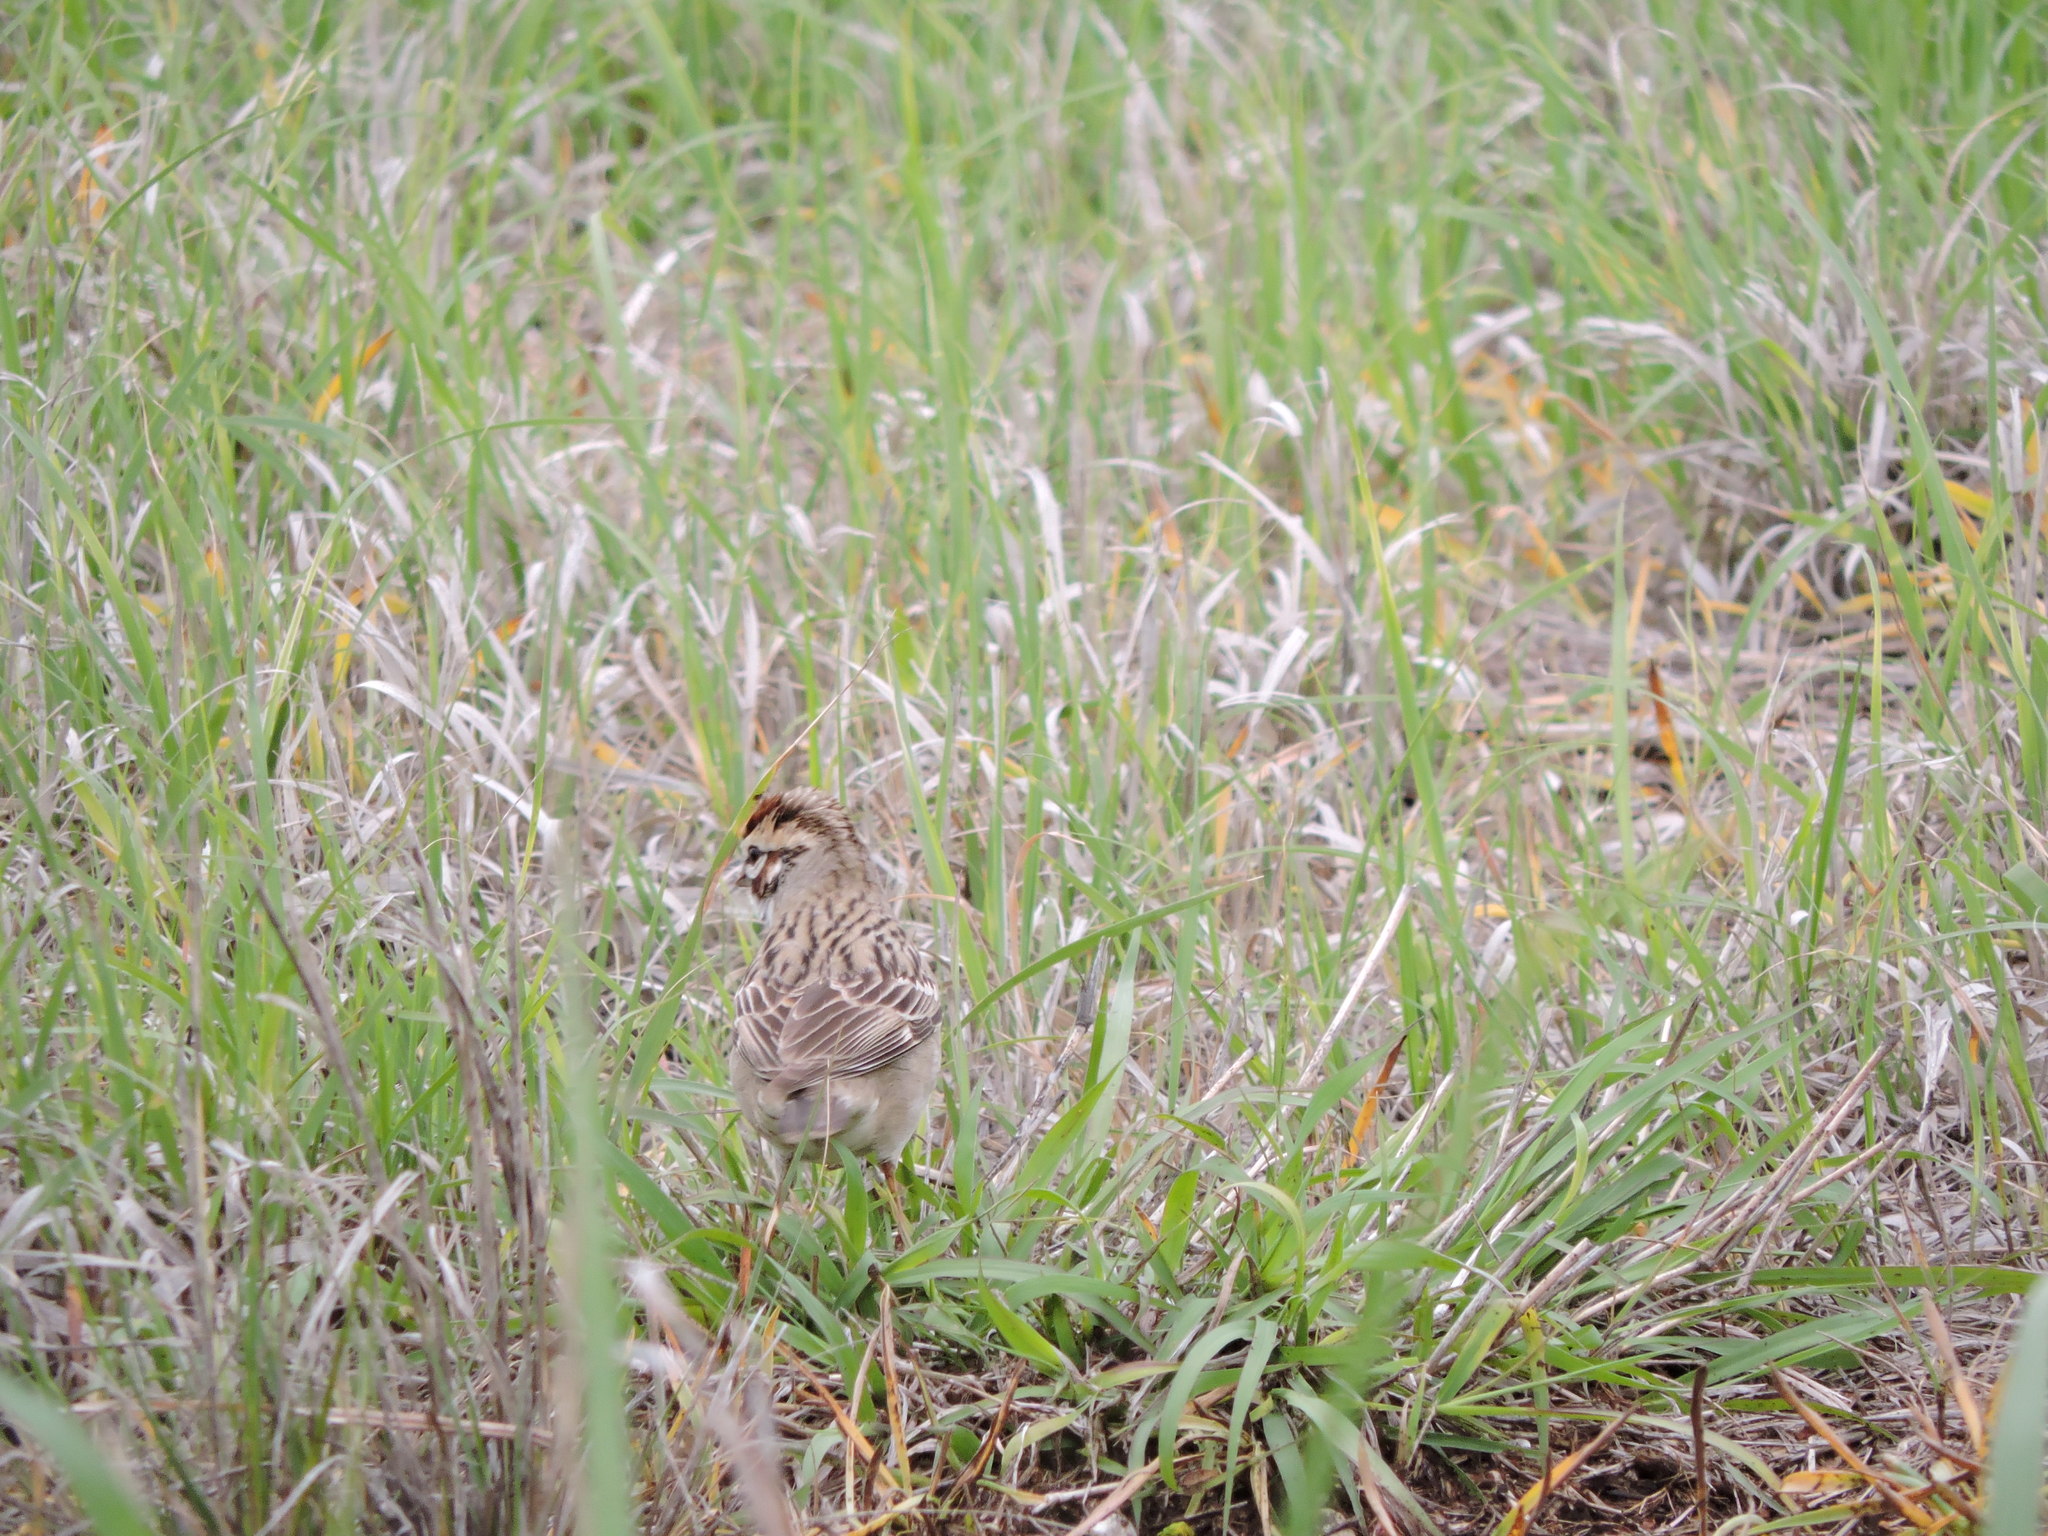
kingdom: Animalia
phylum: Chordata
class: Aves
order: Passeriformes
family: Passerellidae
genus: Chondestes
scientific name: Chondestes grammacus
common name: Lark sparrow
